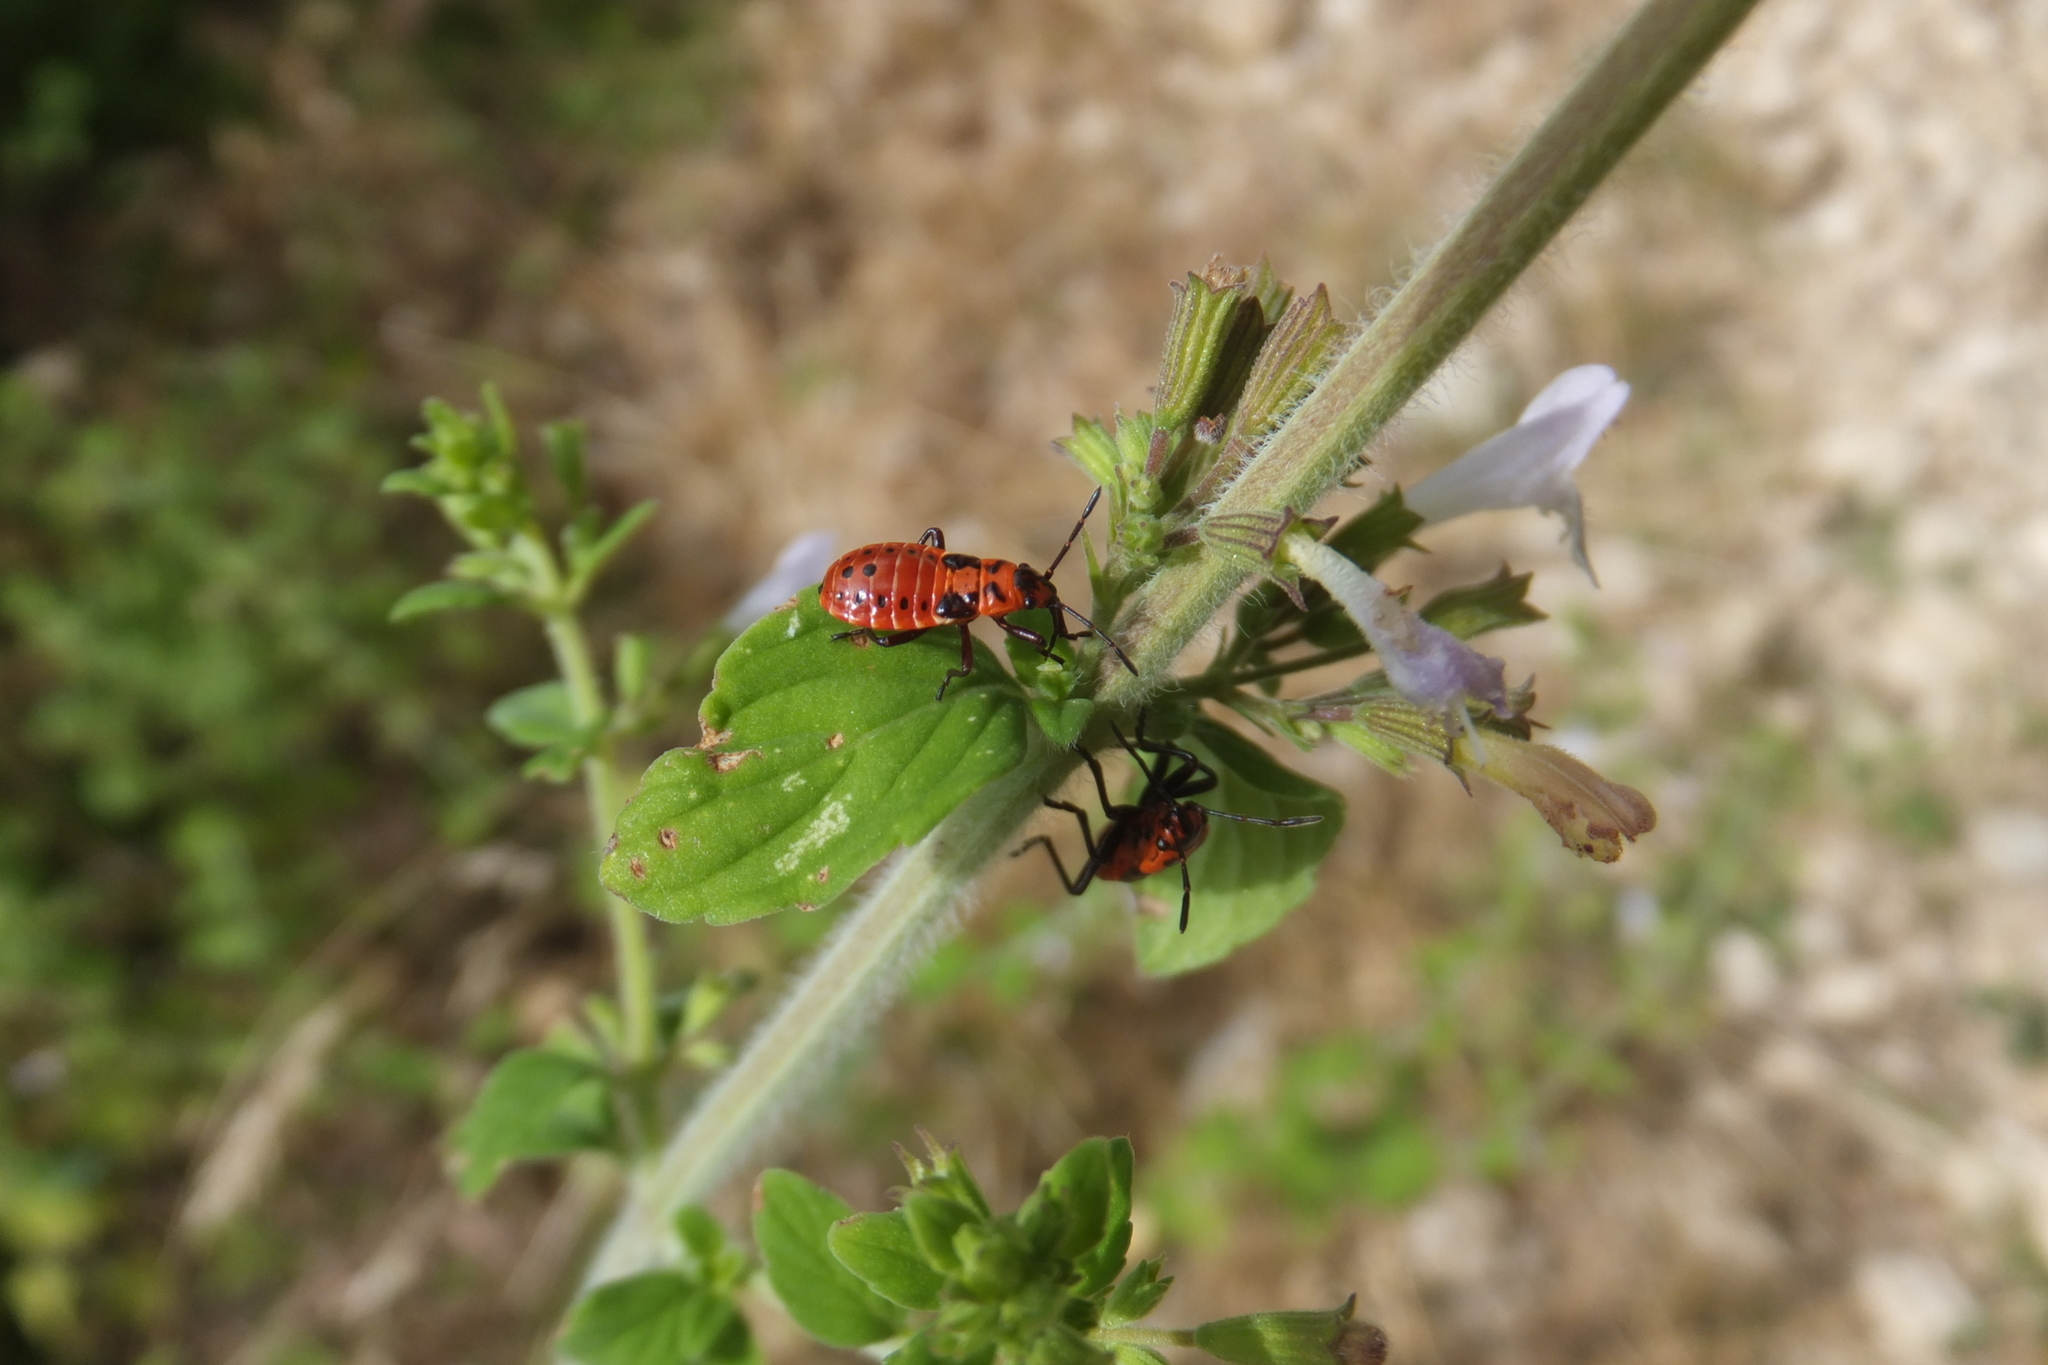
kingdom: Animalia
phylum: Arthropoda
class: Insecta
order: Hemiptera
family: Lygaeidae
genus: Spilostethus
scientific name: Spilostethus saxatilis
